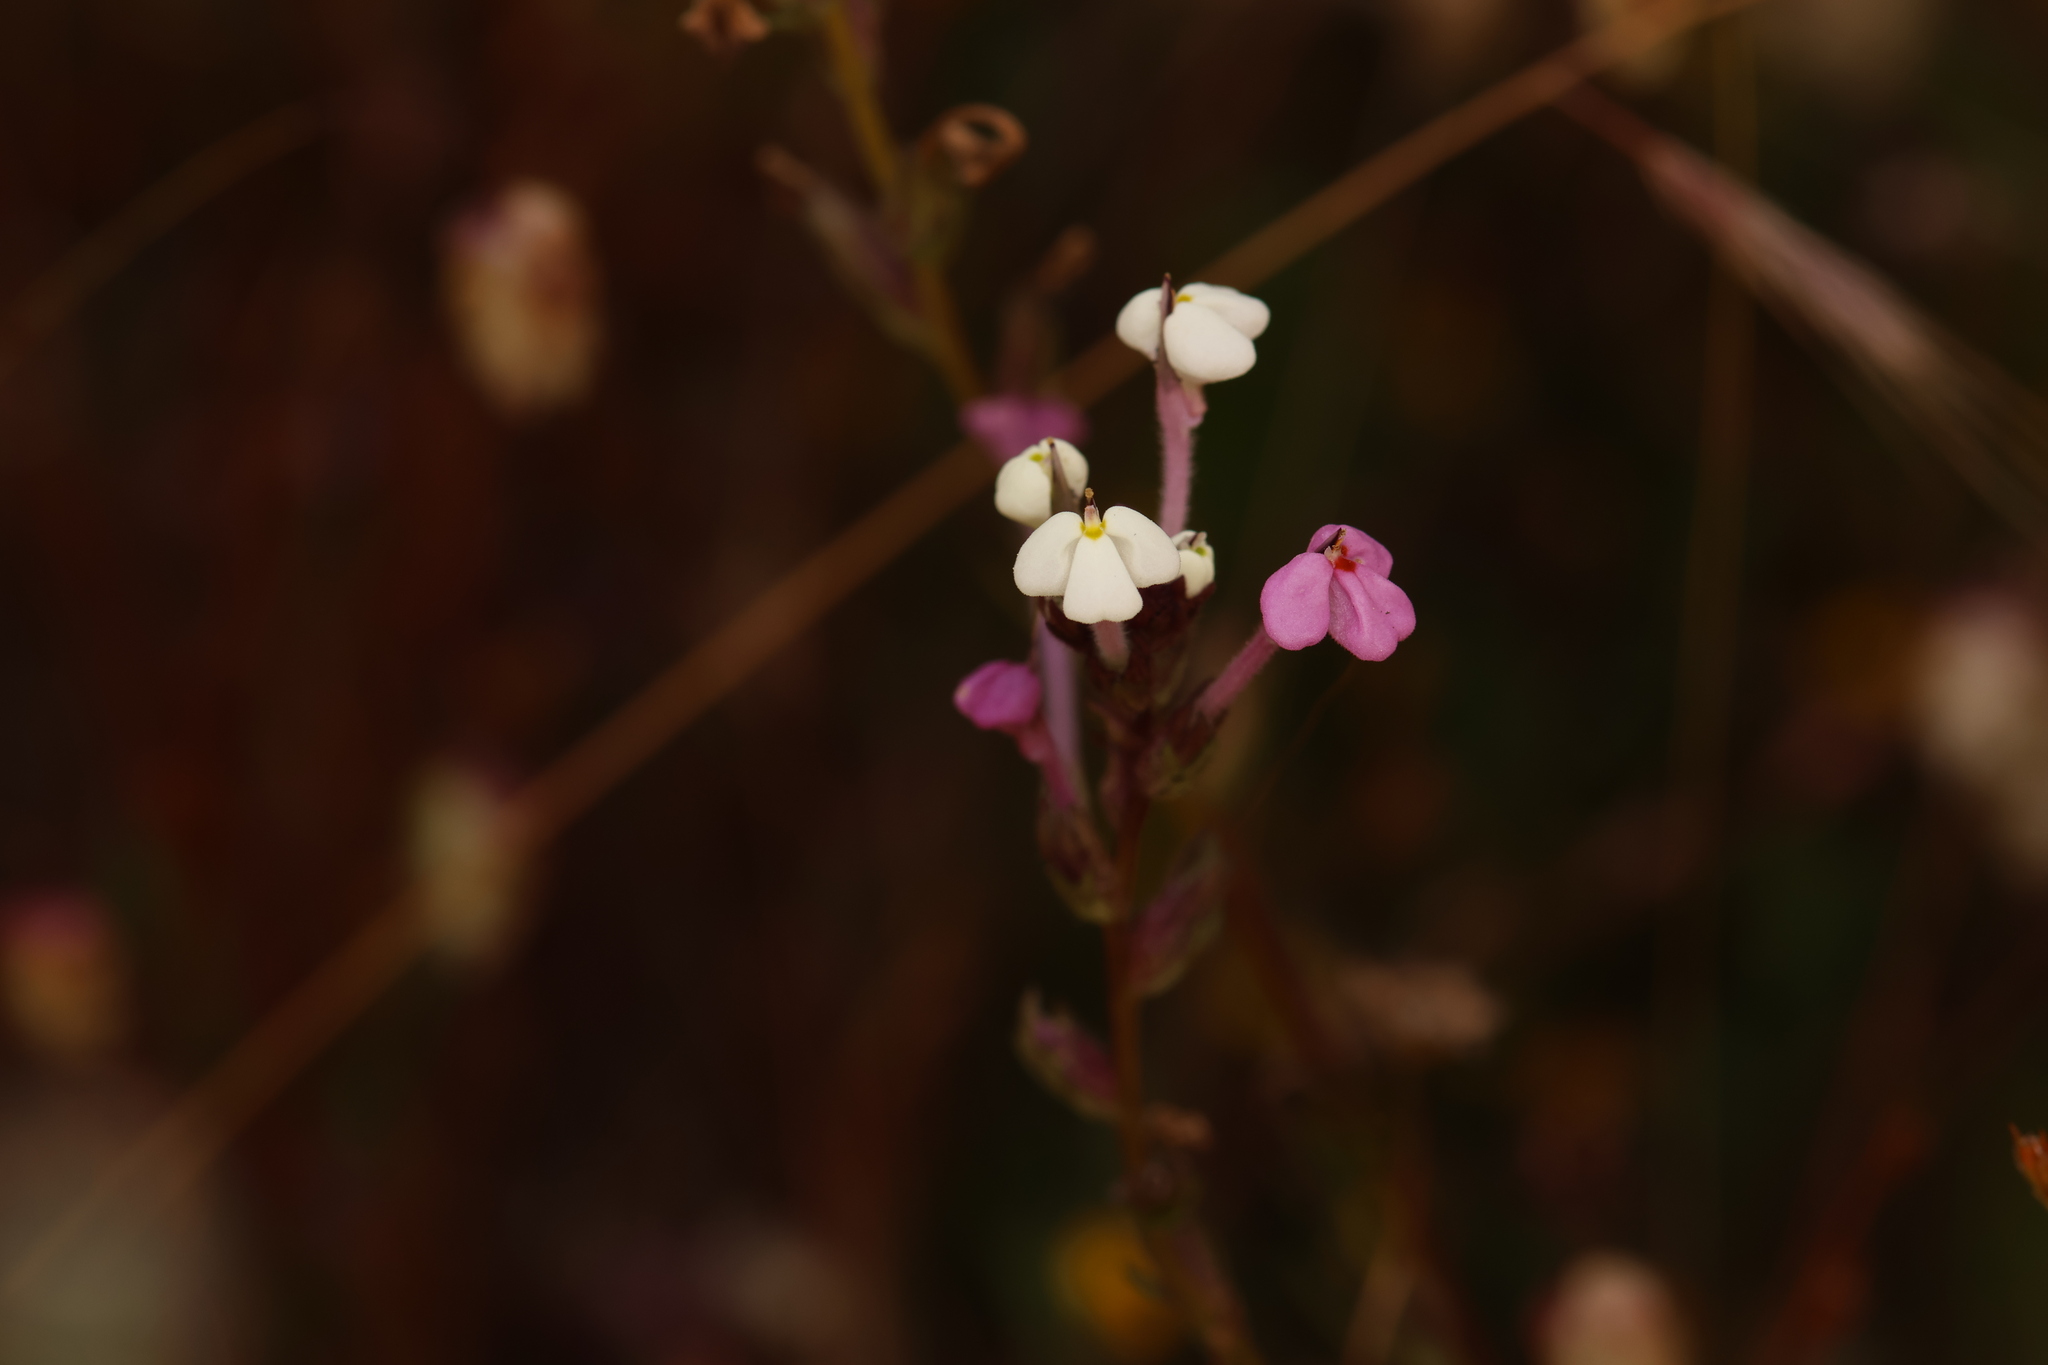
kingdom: Plantae
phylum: Tracheophyta
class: Magnoliopsida
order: Lamiales
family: Orobanchaceae
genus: Triphysaria
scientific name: Triphysaria versicolor
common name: Bearded false owl-clover
